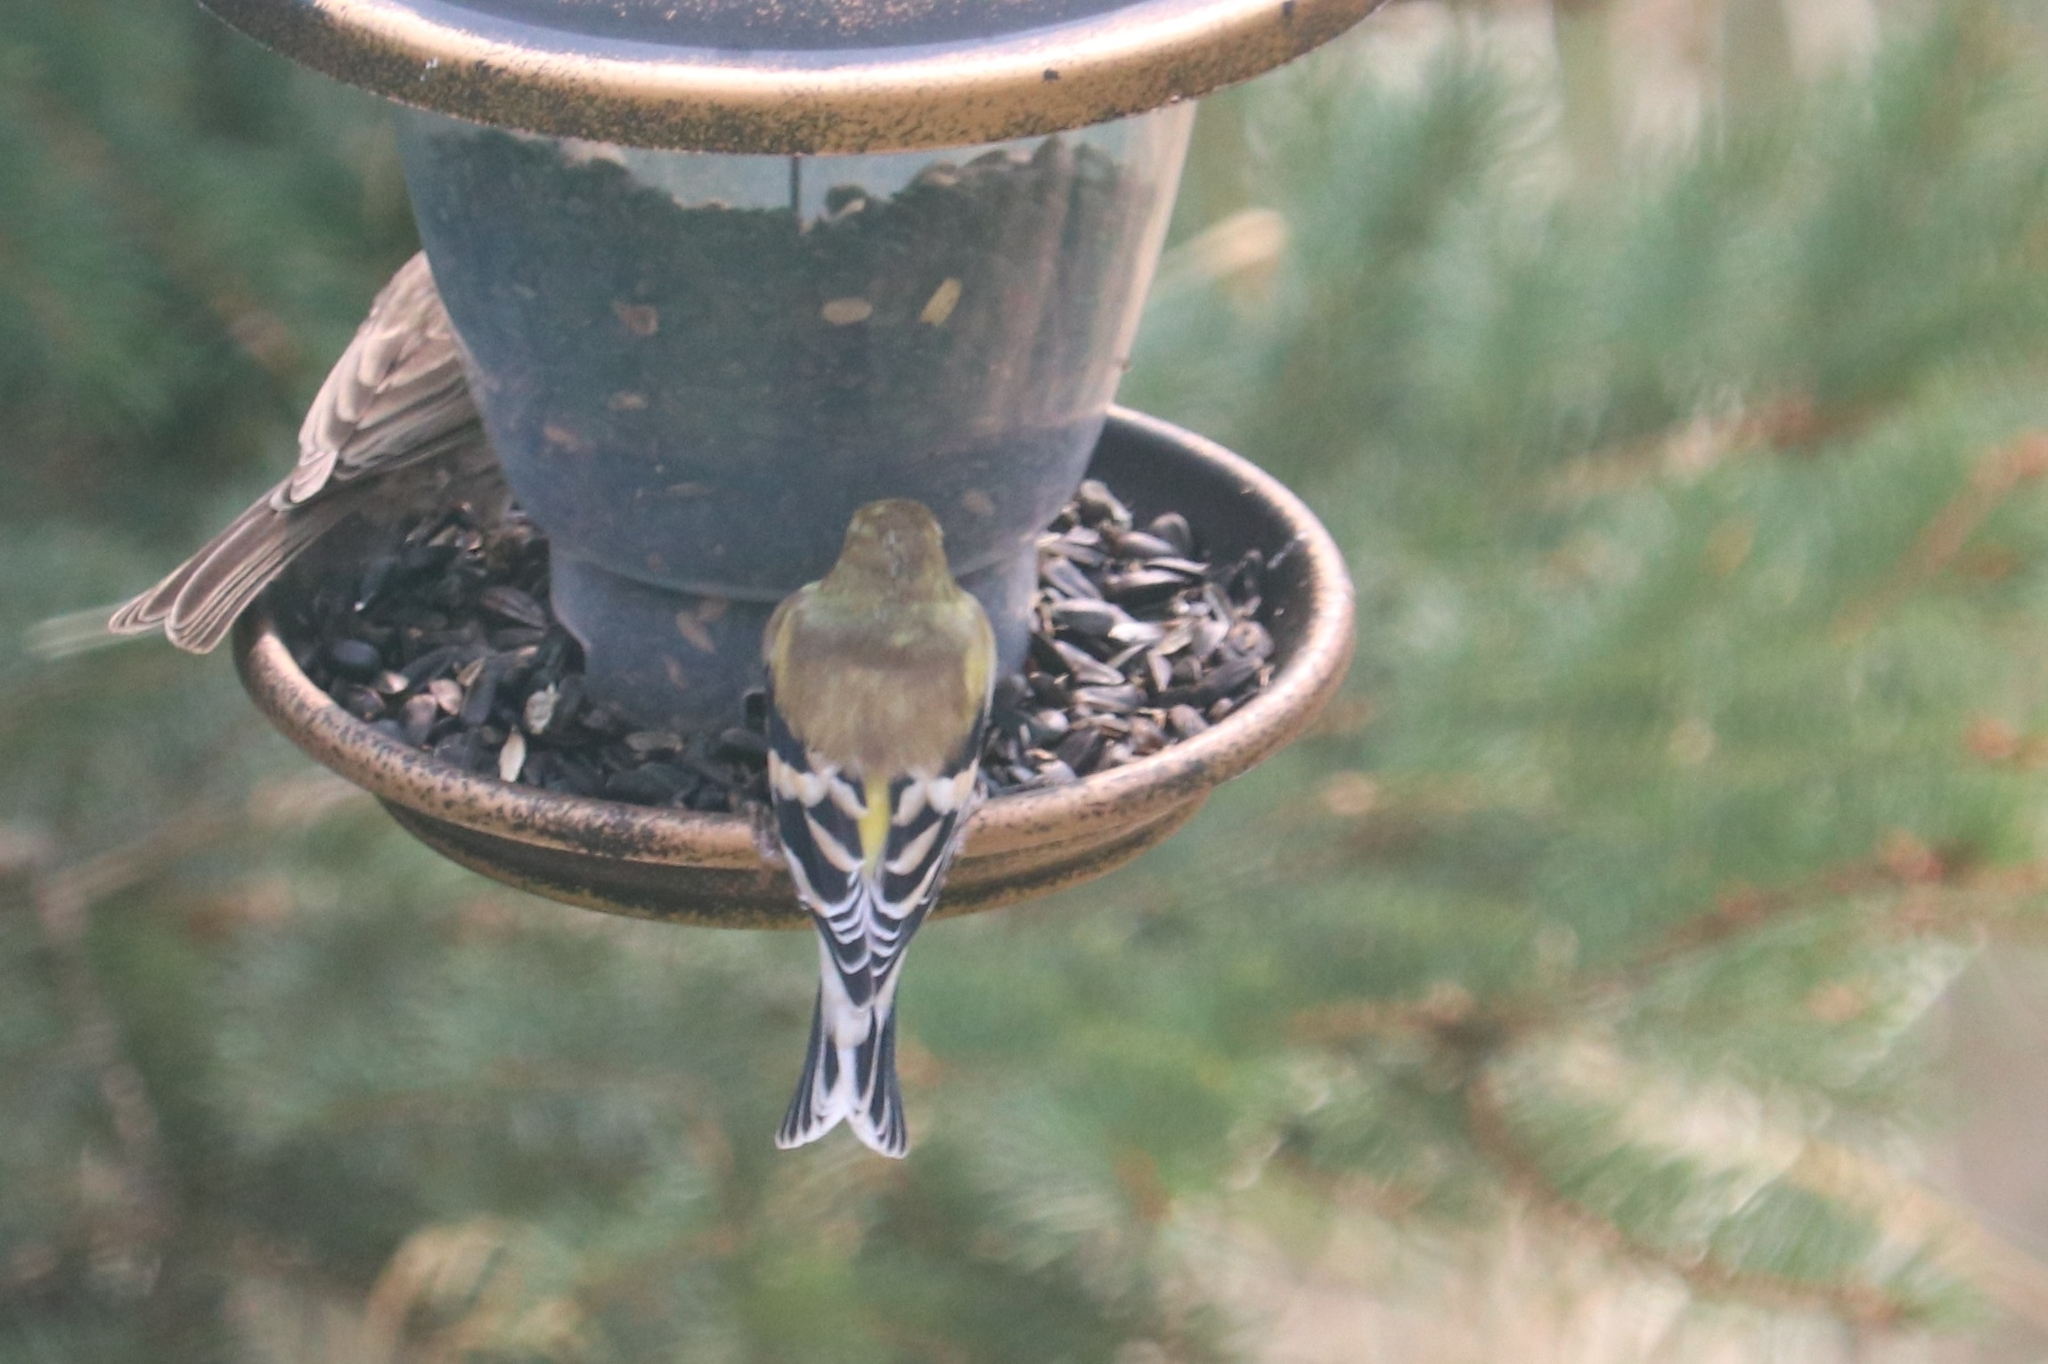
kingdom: Animalia
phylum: Chordata
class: Aves
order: Passeriformes
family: Fringillidae
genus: Spinus
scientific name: Spinus tristis
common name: American goldfinch
